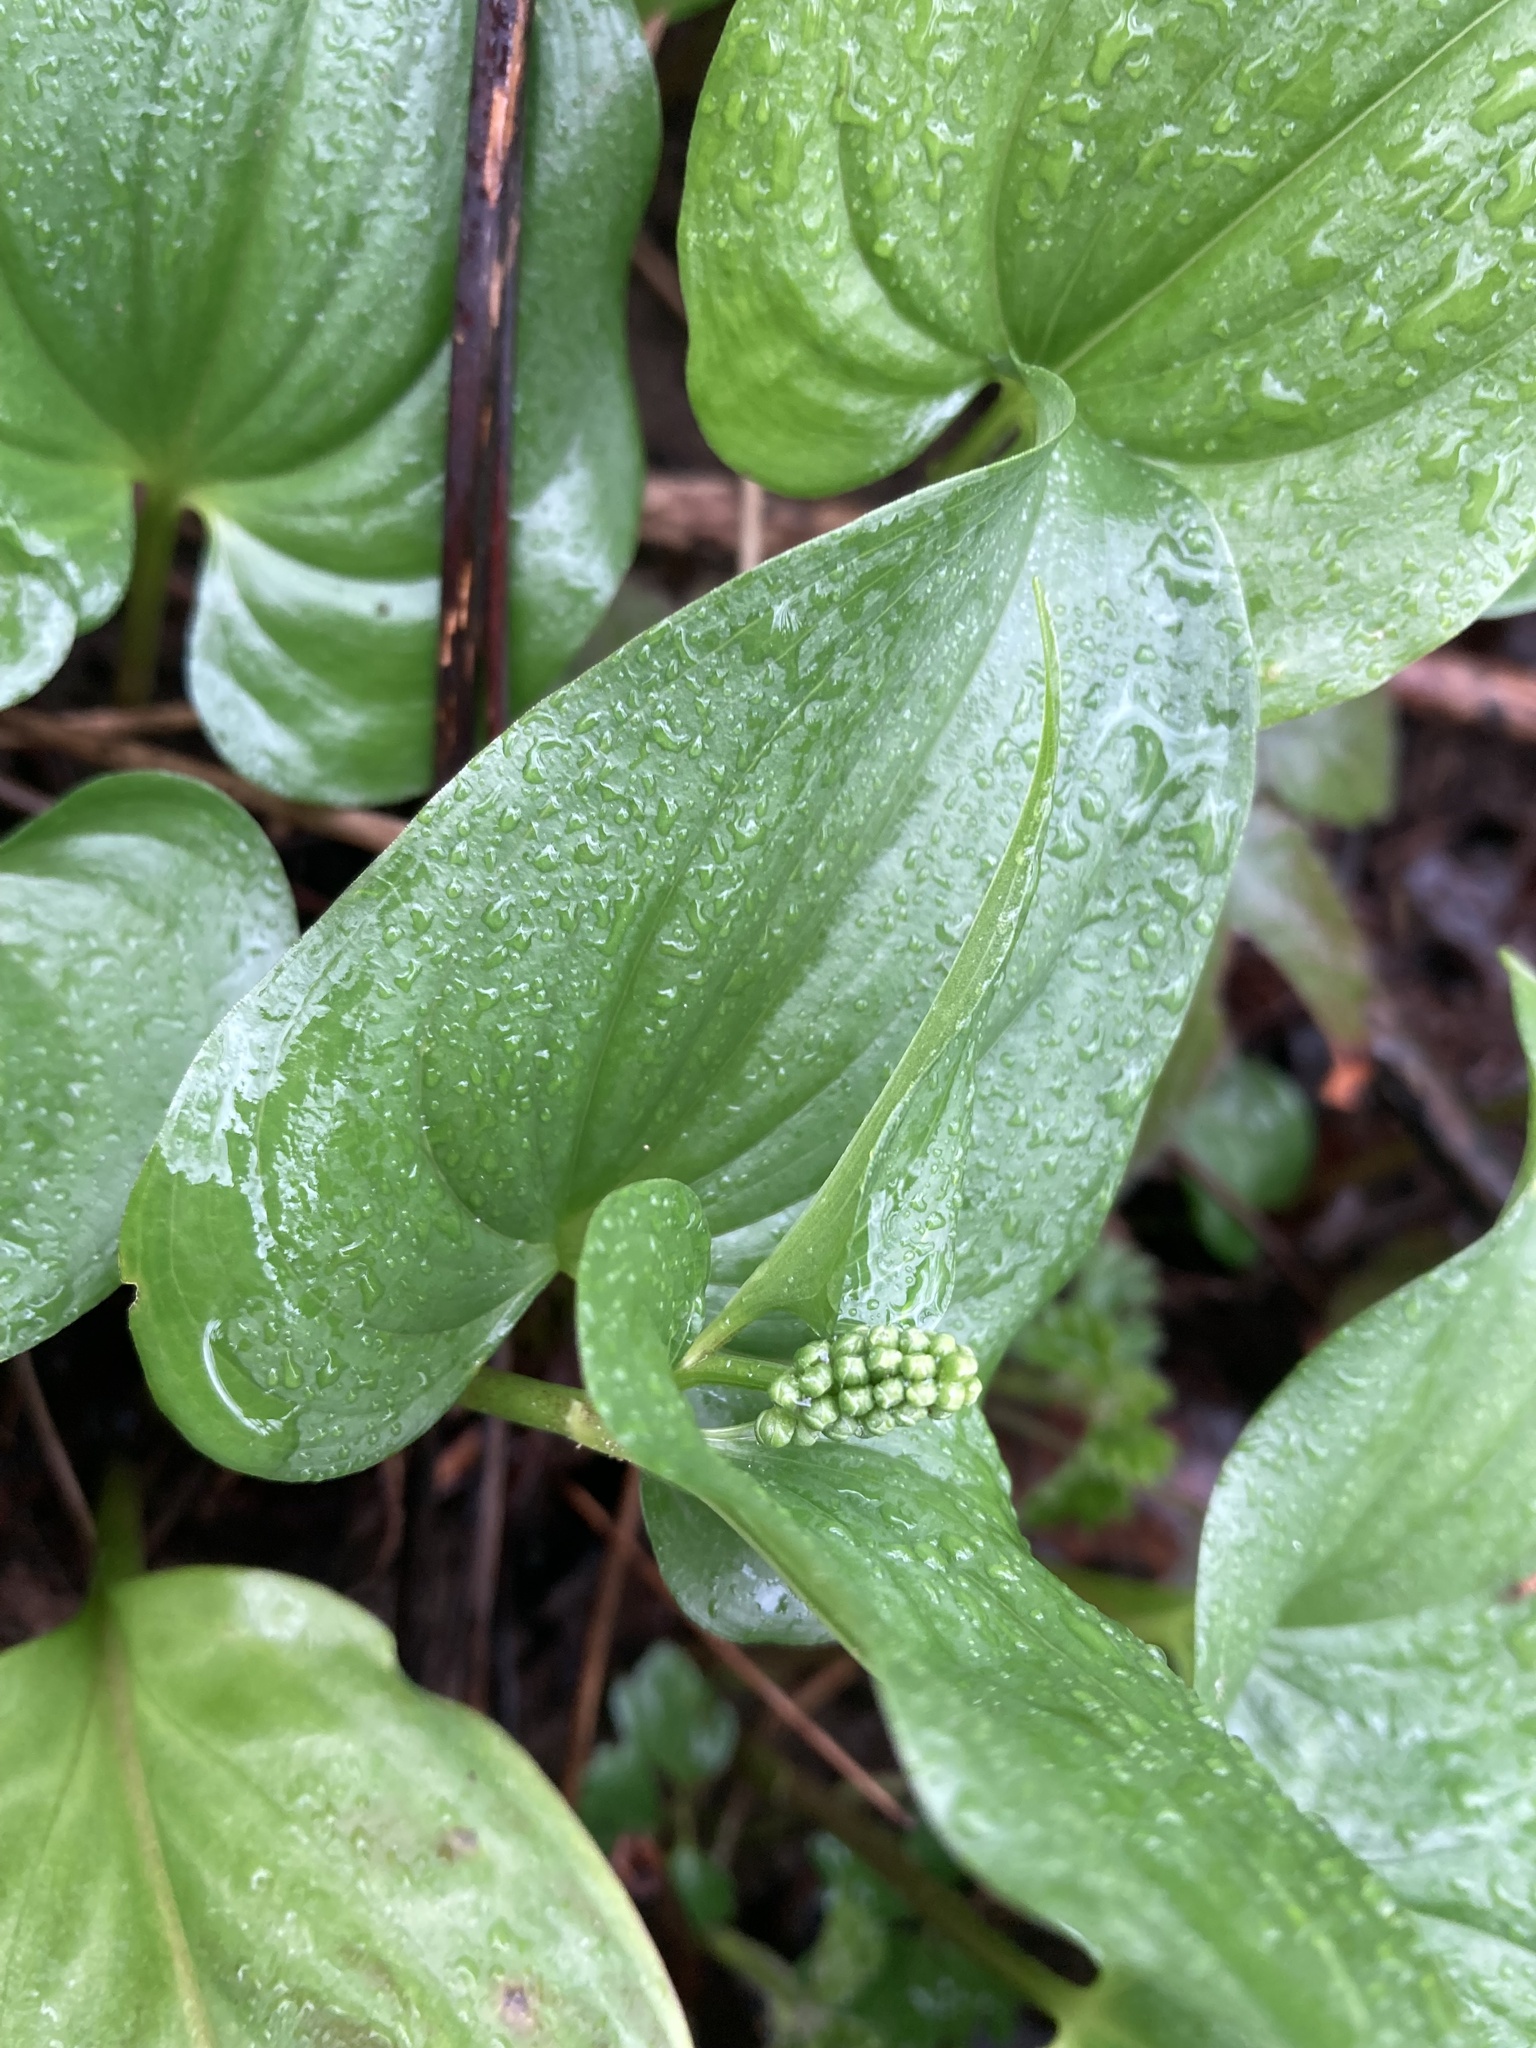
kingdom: Plantae
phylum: Tracheophyta
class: Liliopsida
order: Asparagales
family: Asparagaceae
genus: Maianthemum
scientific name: Maianthemum dilatatum
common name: False lily-of-the-valley
